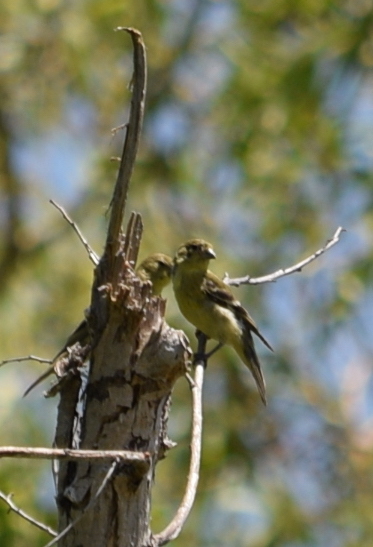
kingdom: Animalia
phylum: Chordata
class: Aves
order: Passeriformes
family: Fringillidae
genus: Spinus
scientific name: Spinus psaltria
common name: Lesser goldfinch
